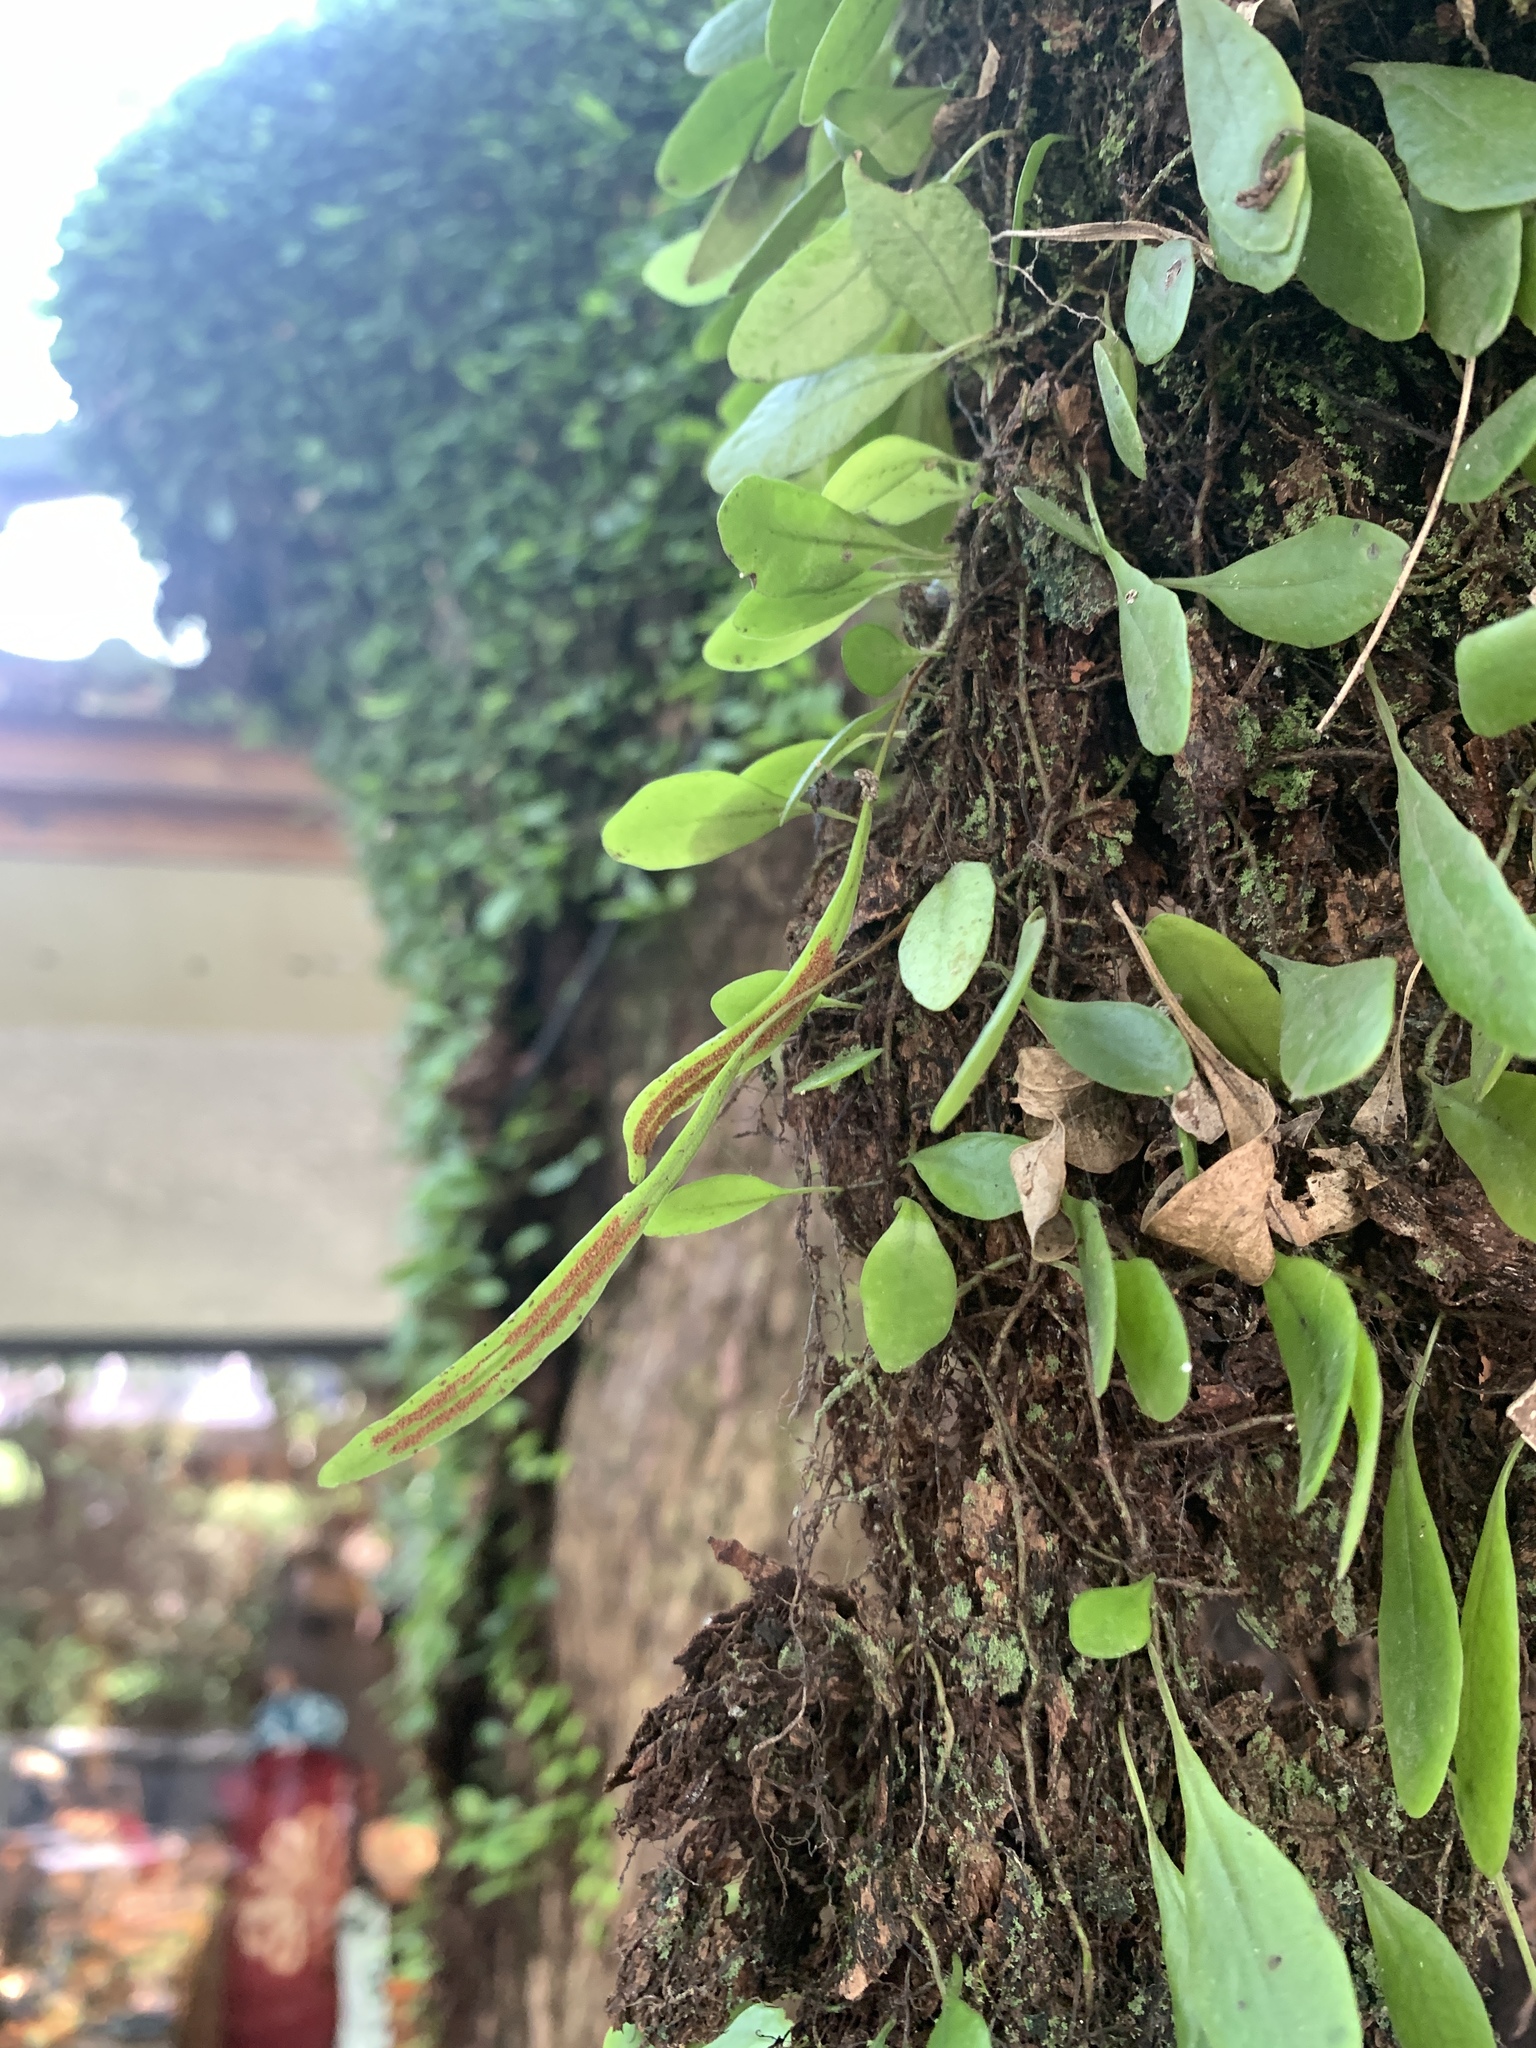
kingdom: Plantae
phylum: Tracheophyta
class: Polypodiopsida
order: Polypodiales
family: Polypodiaceae
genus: Lepisorus
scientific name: Lepisorus microphyllus
